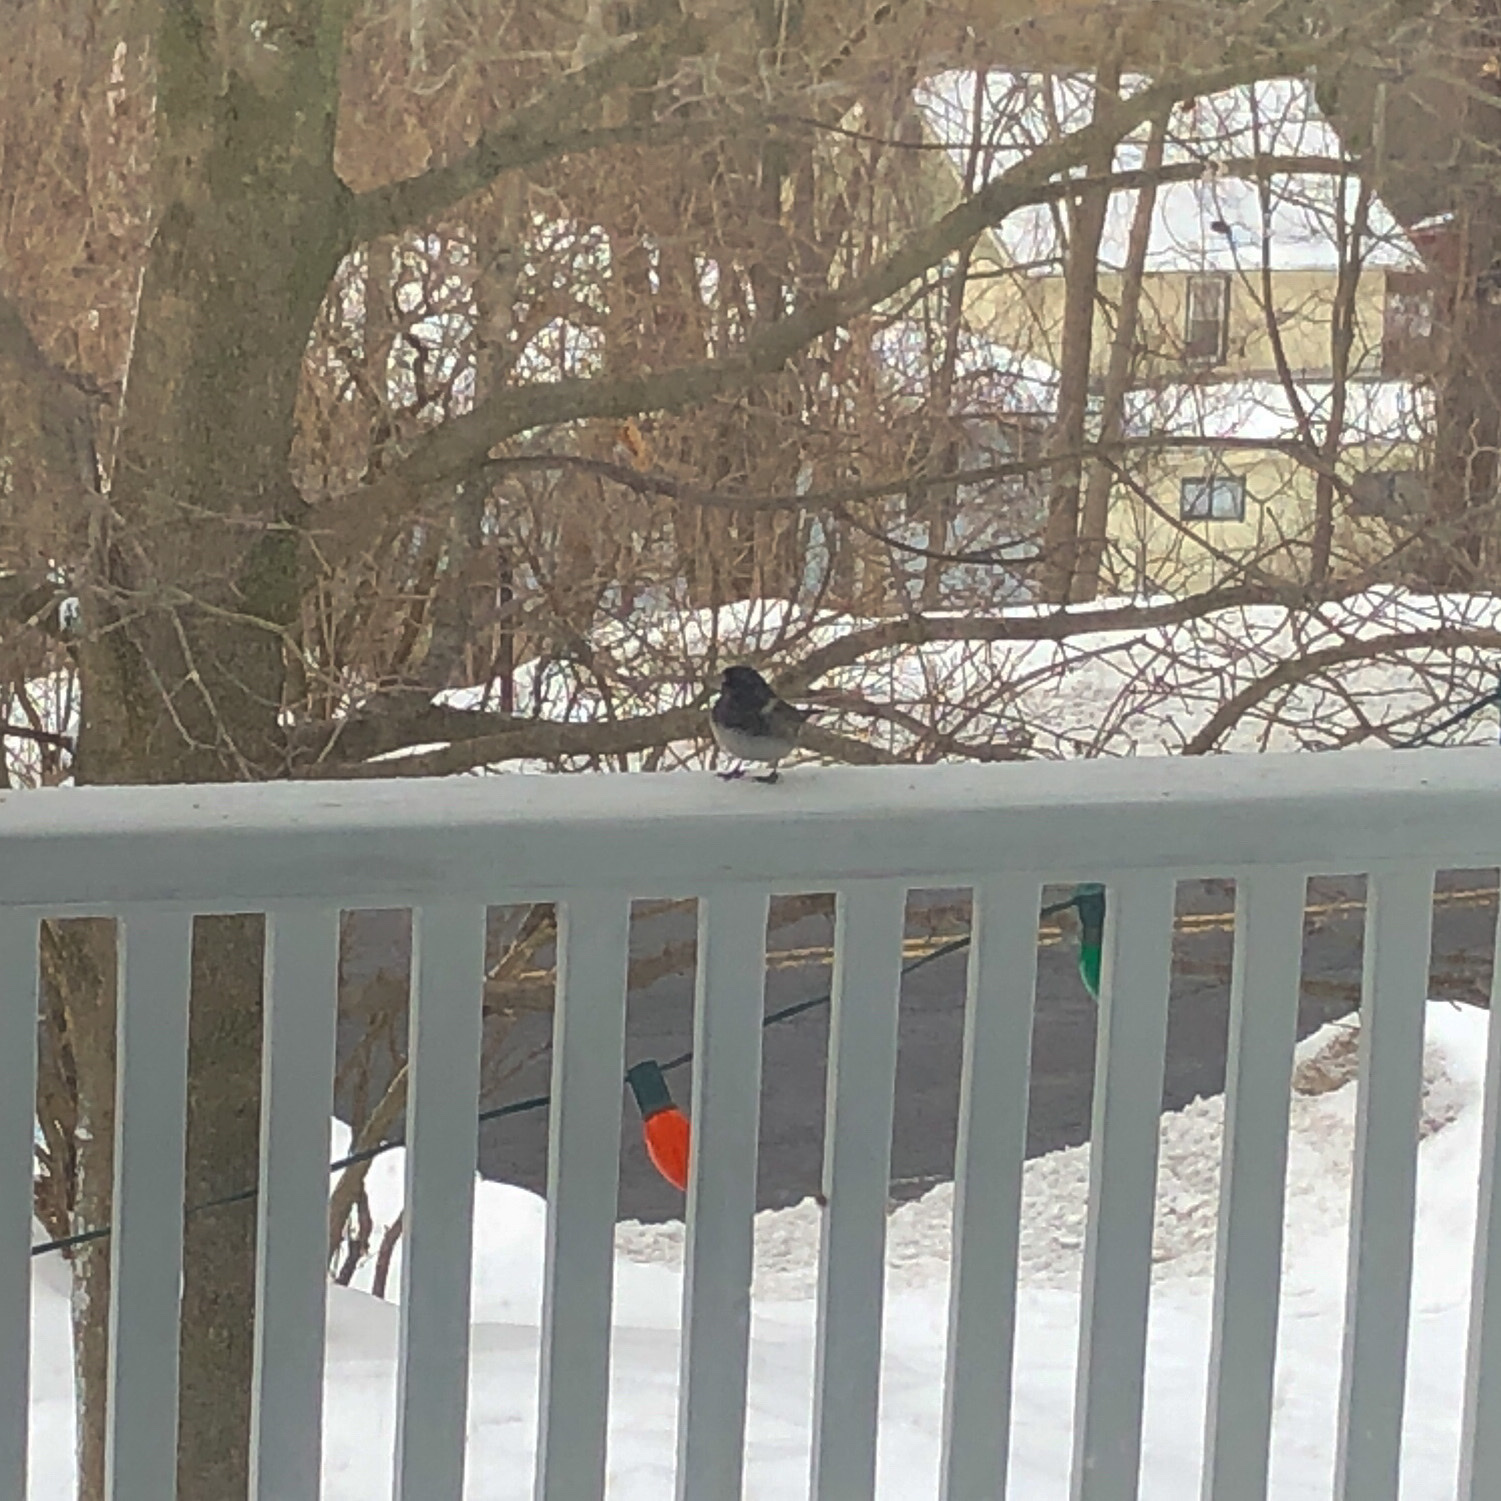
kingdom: Animalia
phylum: Chordata
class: Aves
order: Passeriformes
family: Passerellidae
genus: Junco
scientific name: Junco hyemalis
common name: Dark-eyed junco
